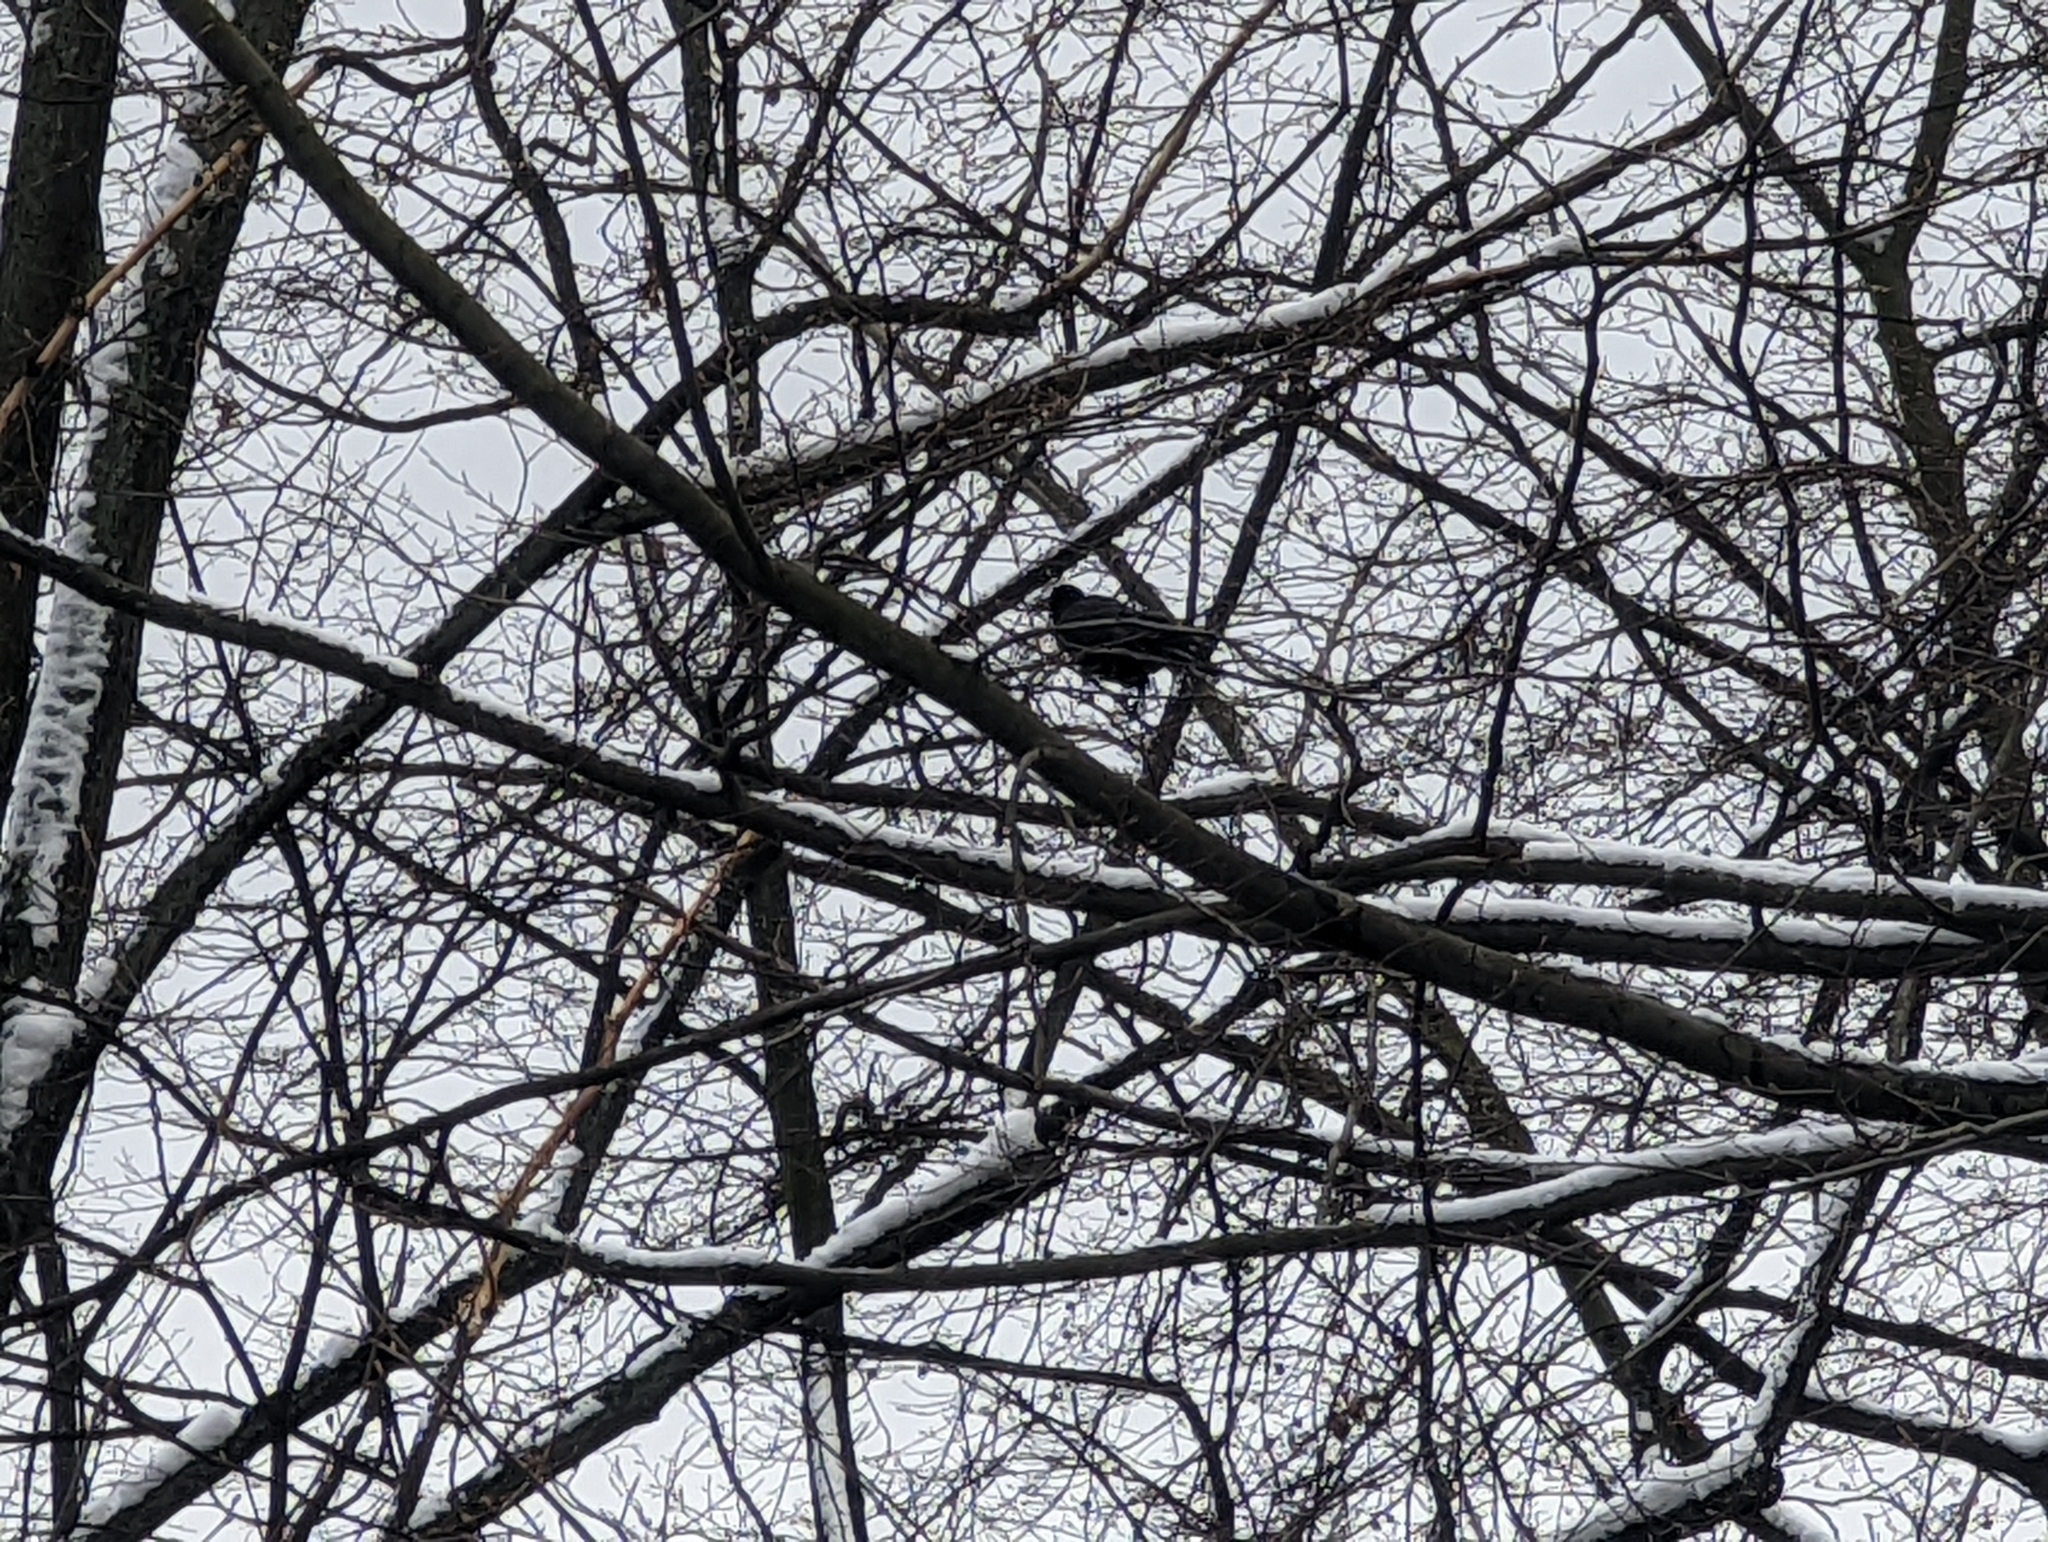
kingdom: Animalia
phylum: Chordata
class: Aves
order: Passeriformes
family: Corvidae
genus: Corvus
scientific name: Corvus frugilegus
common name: Rook
